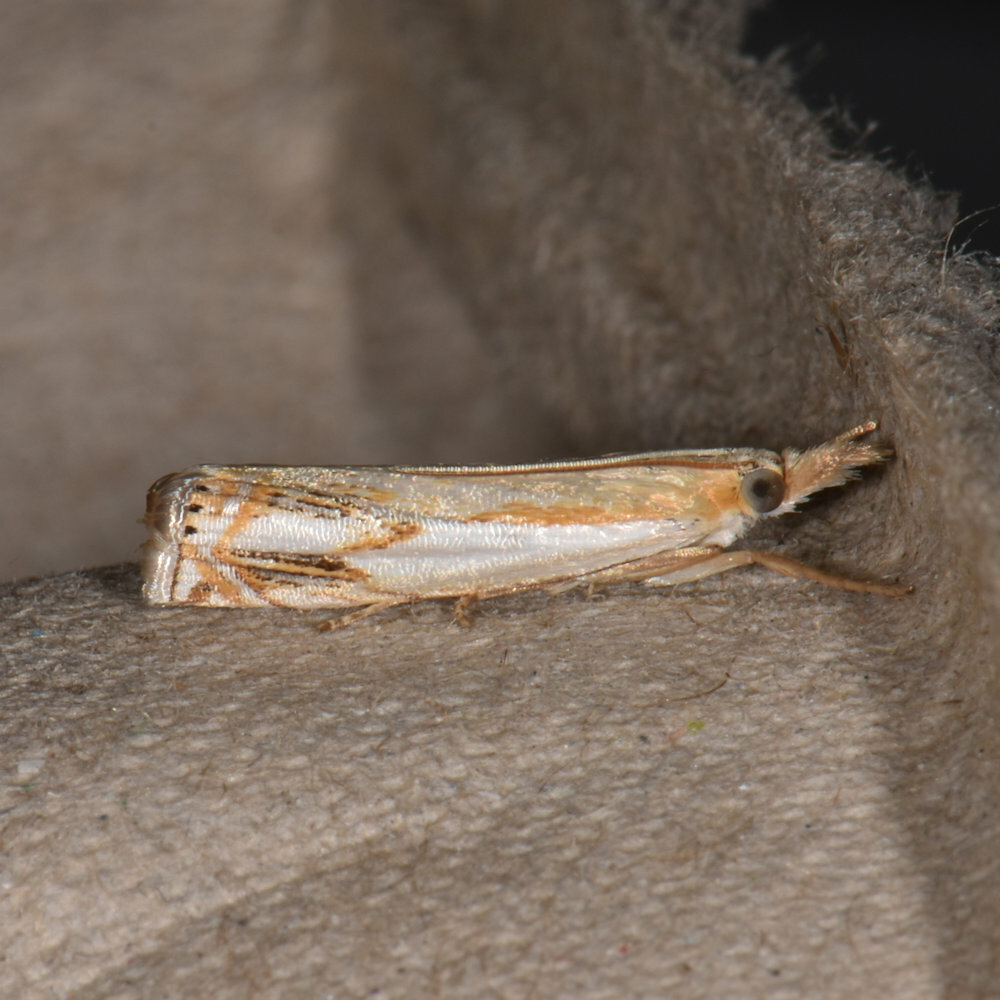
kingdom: Animalia
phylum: Arthropoda
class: Insecta
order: Lepidoptera
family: Crambidae
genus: Crambus
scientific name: Crambus agitatellus
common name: Double-banded grass-veneer
